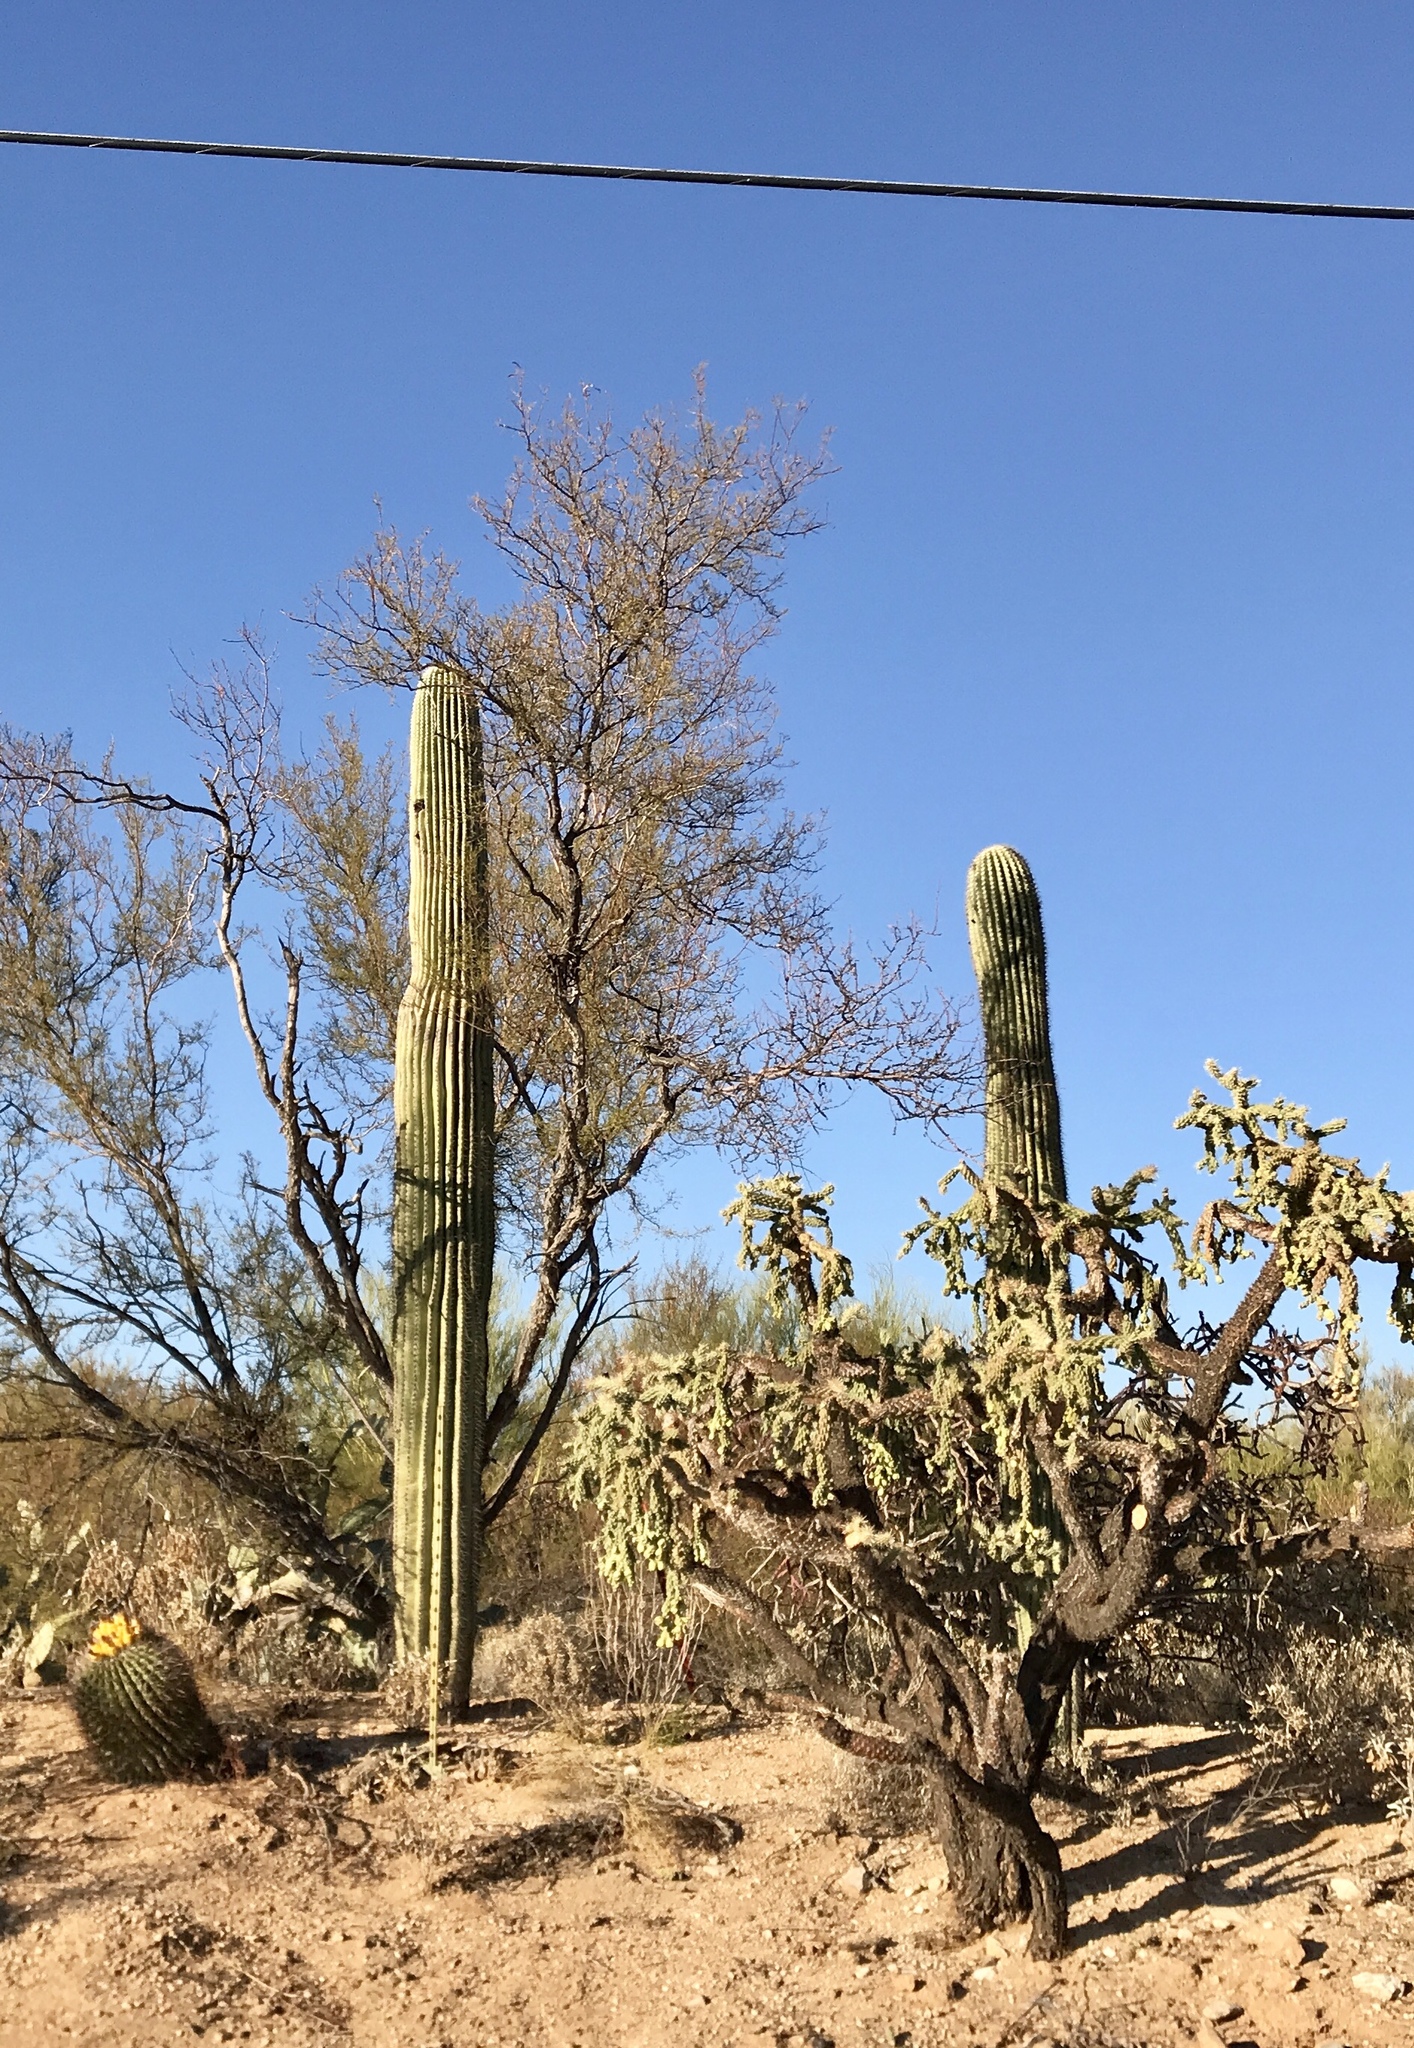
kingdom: Plantae
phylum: Tracheophyta
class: Magnoliopsida
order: Caryophyllales
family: Cactaceae
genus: Carnegiea
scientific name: Carnegiea gigantea
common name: Saguaro
